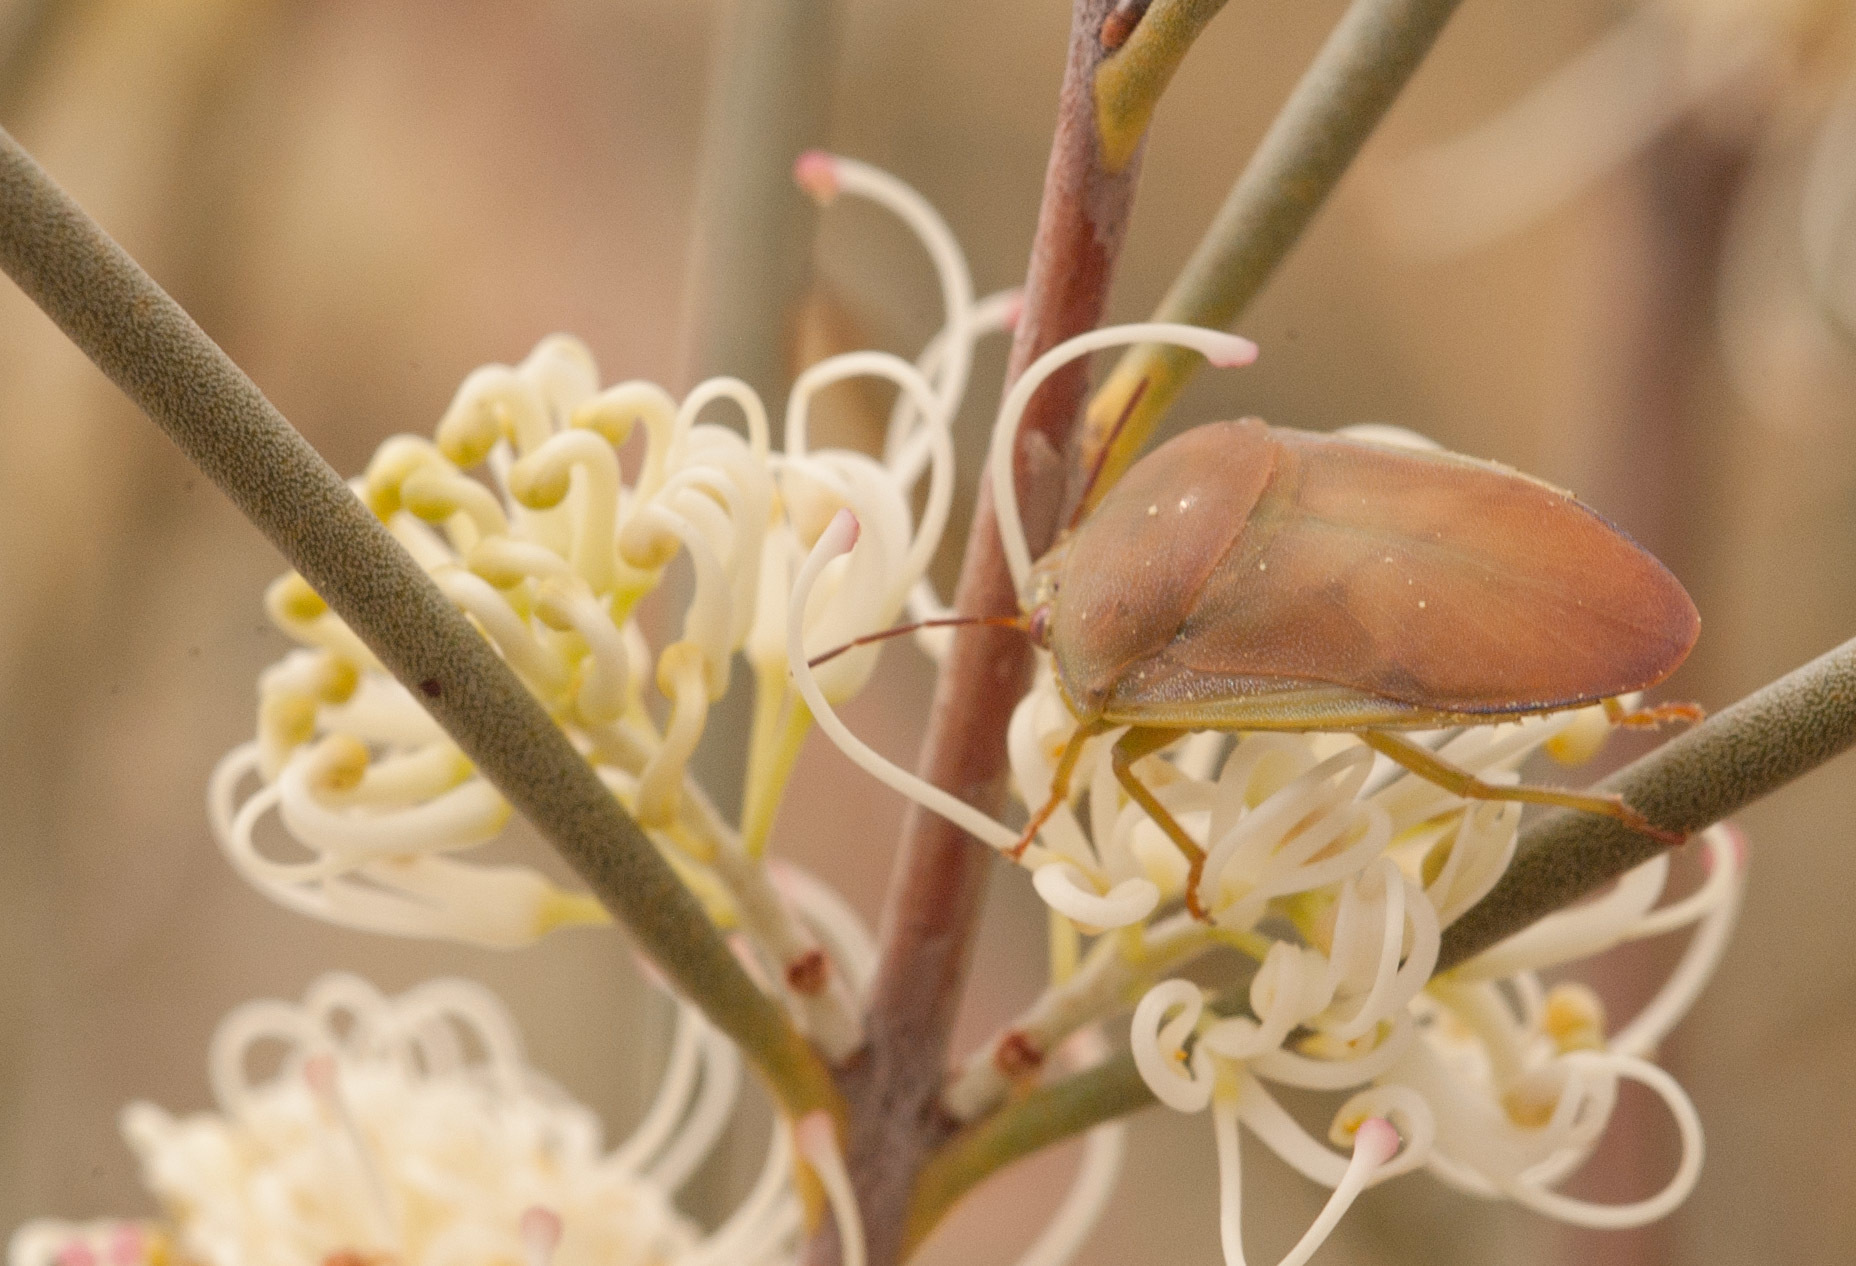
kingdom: Animalia
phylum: Arthropoda
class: Insecta
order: Hemiptera
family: Pentatomidae
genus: Coleotichus
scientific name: Coleotichus costatus
